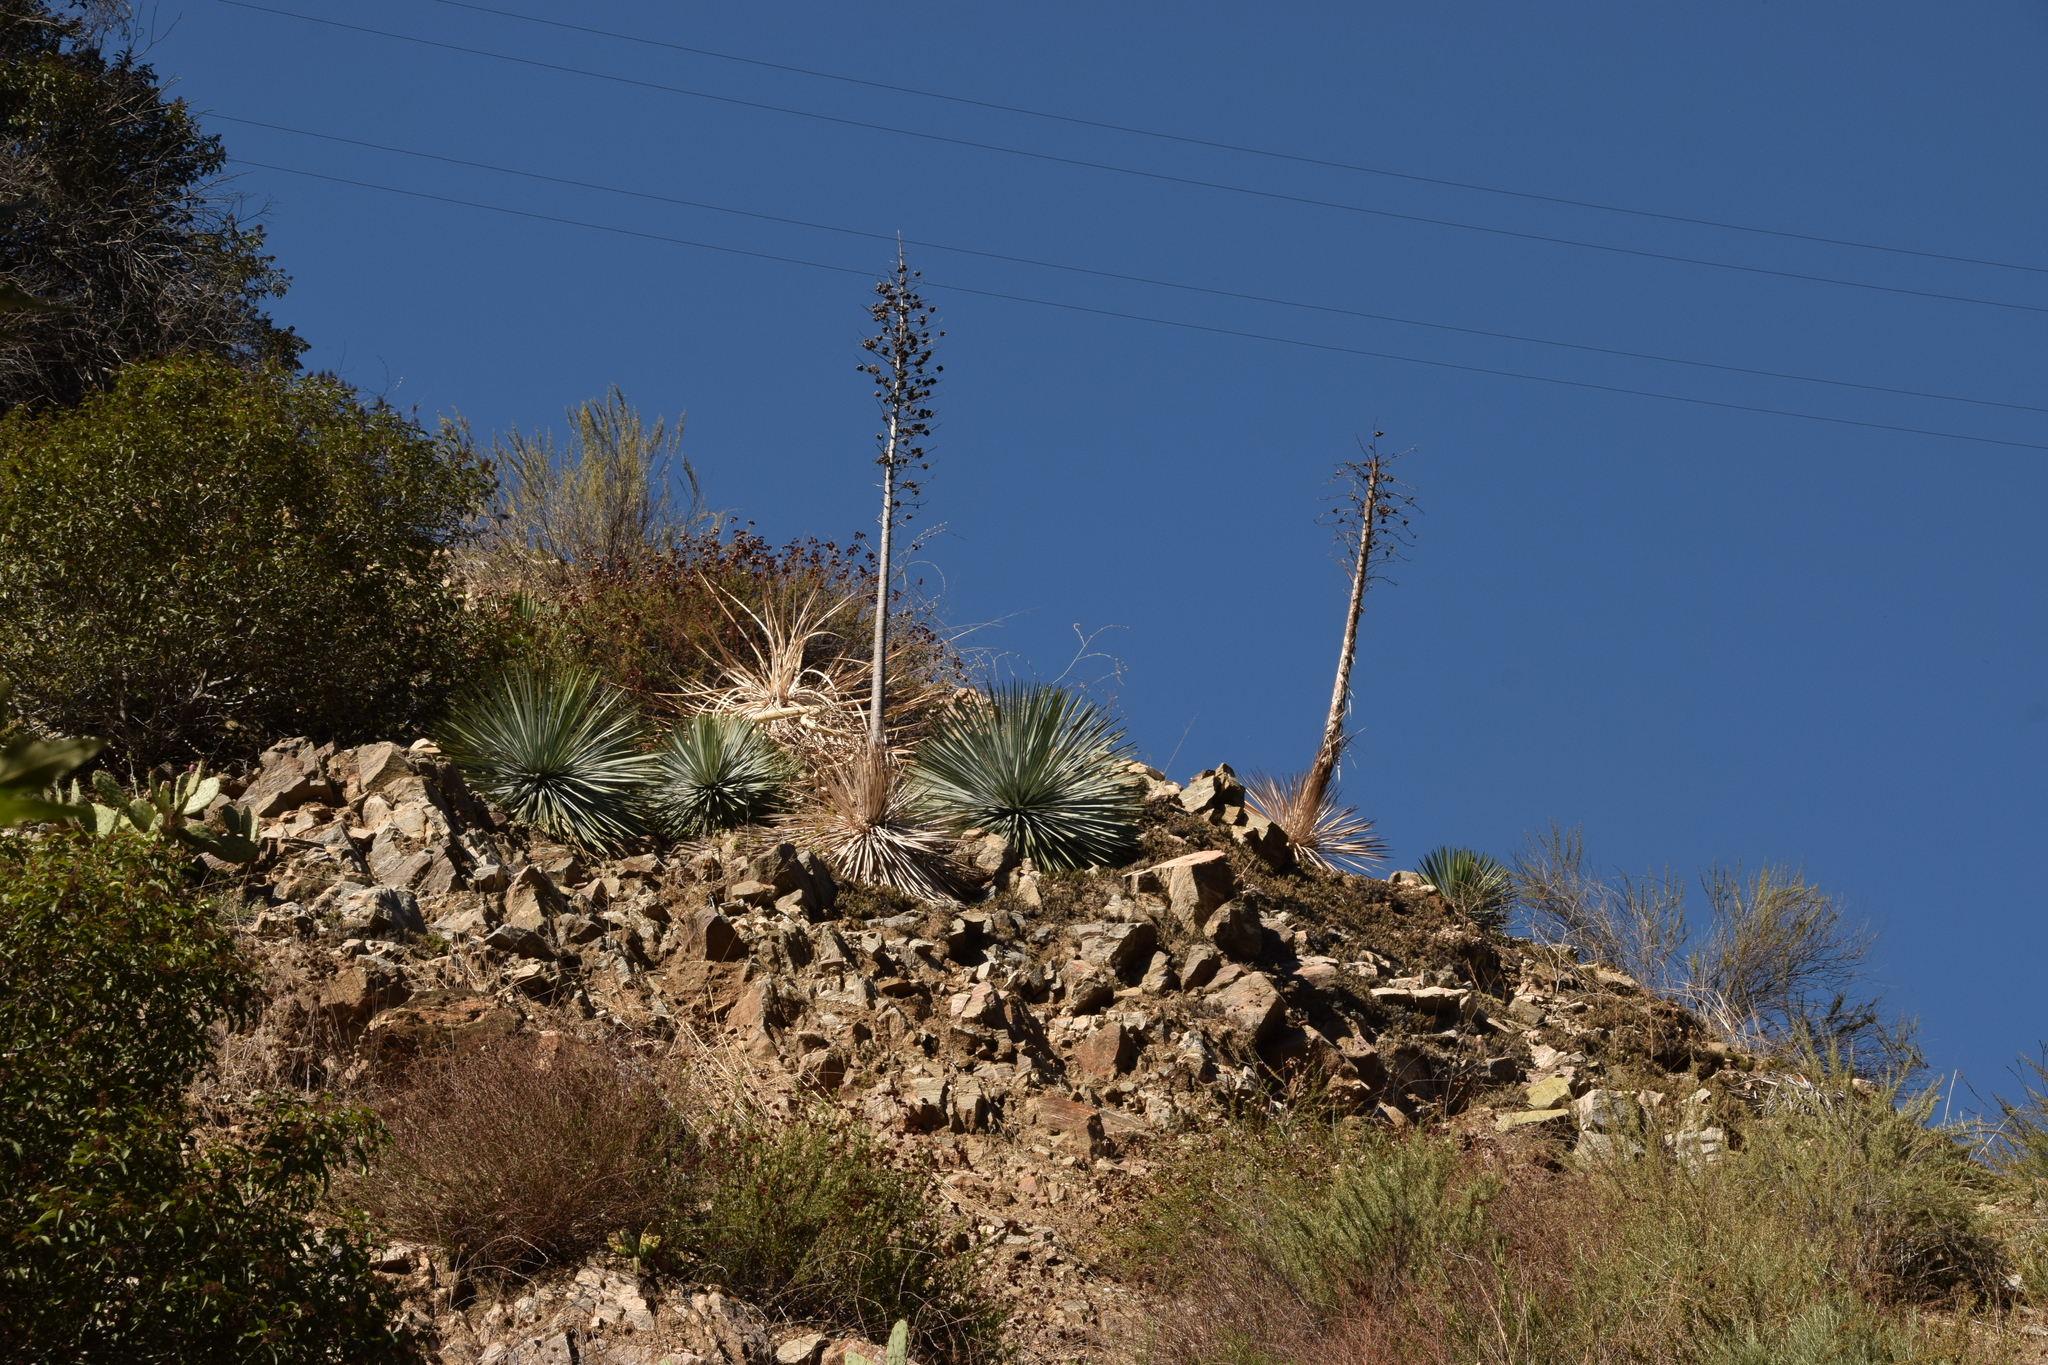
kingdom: Plantae
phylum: Tracheophyta
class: Liliopsida
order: Asparagales
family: Asparagaceae
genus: Hesperoyucca
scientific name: Hesperoyucca whipplei
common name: Our lord's-candle
